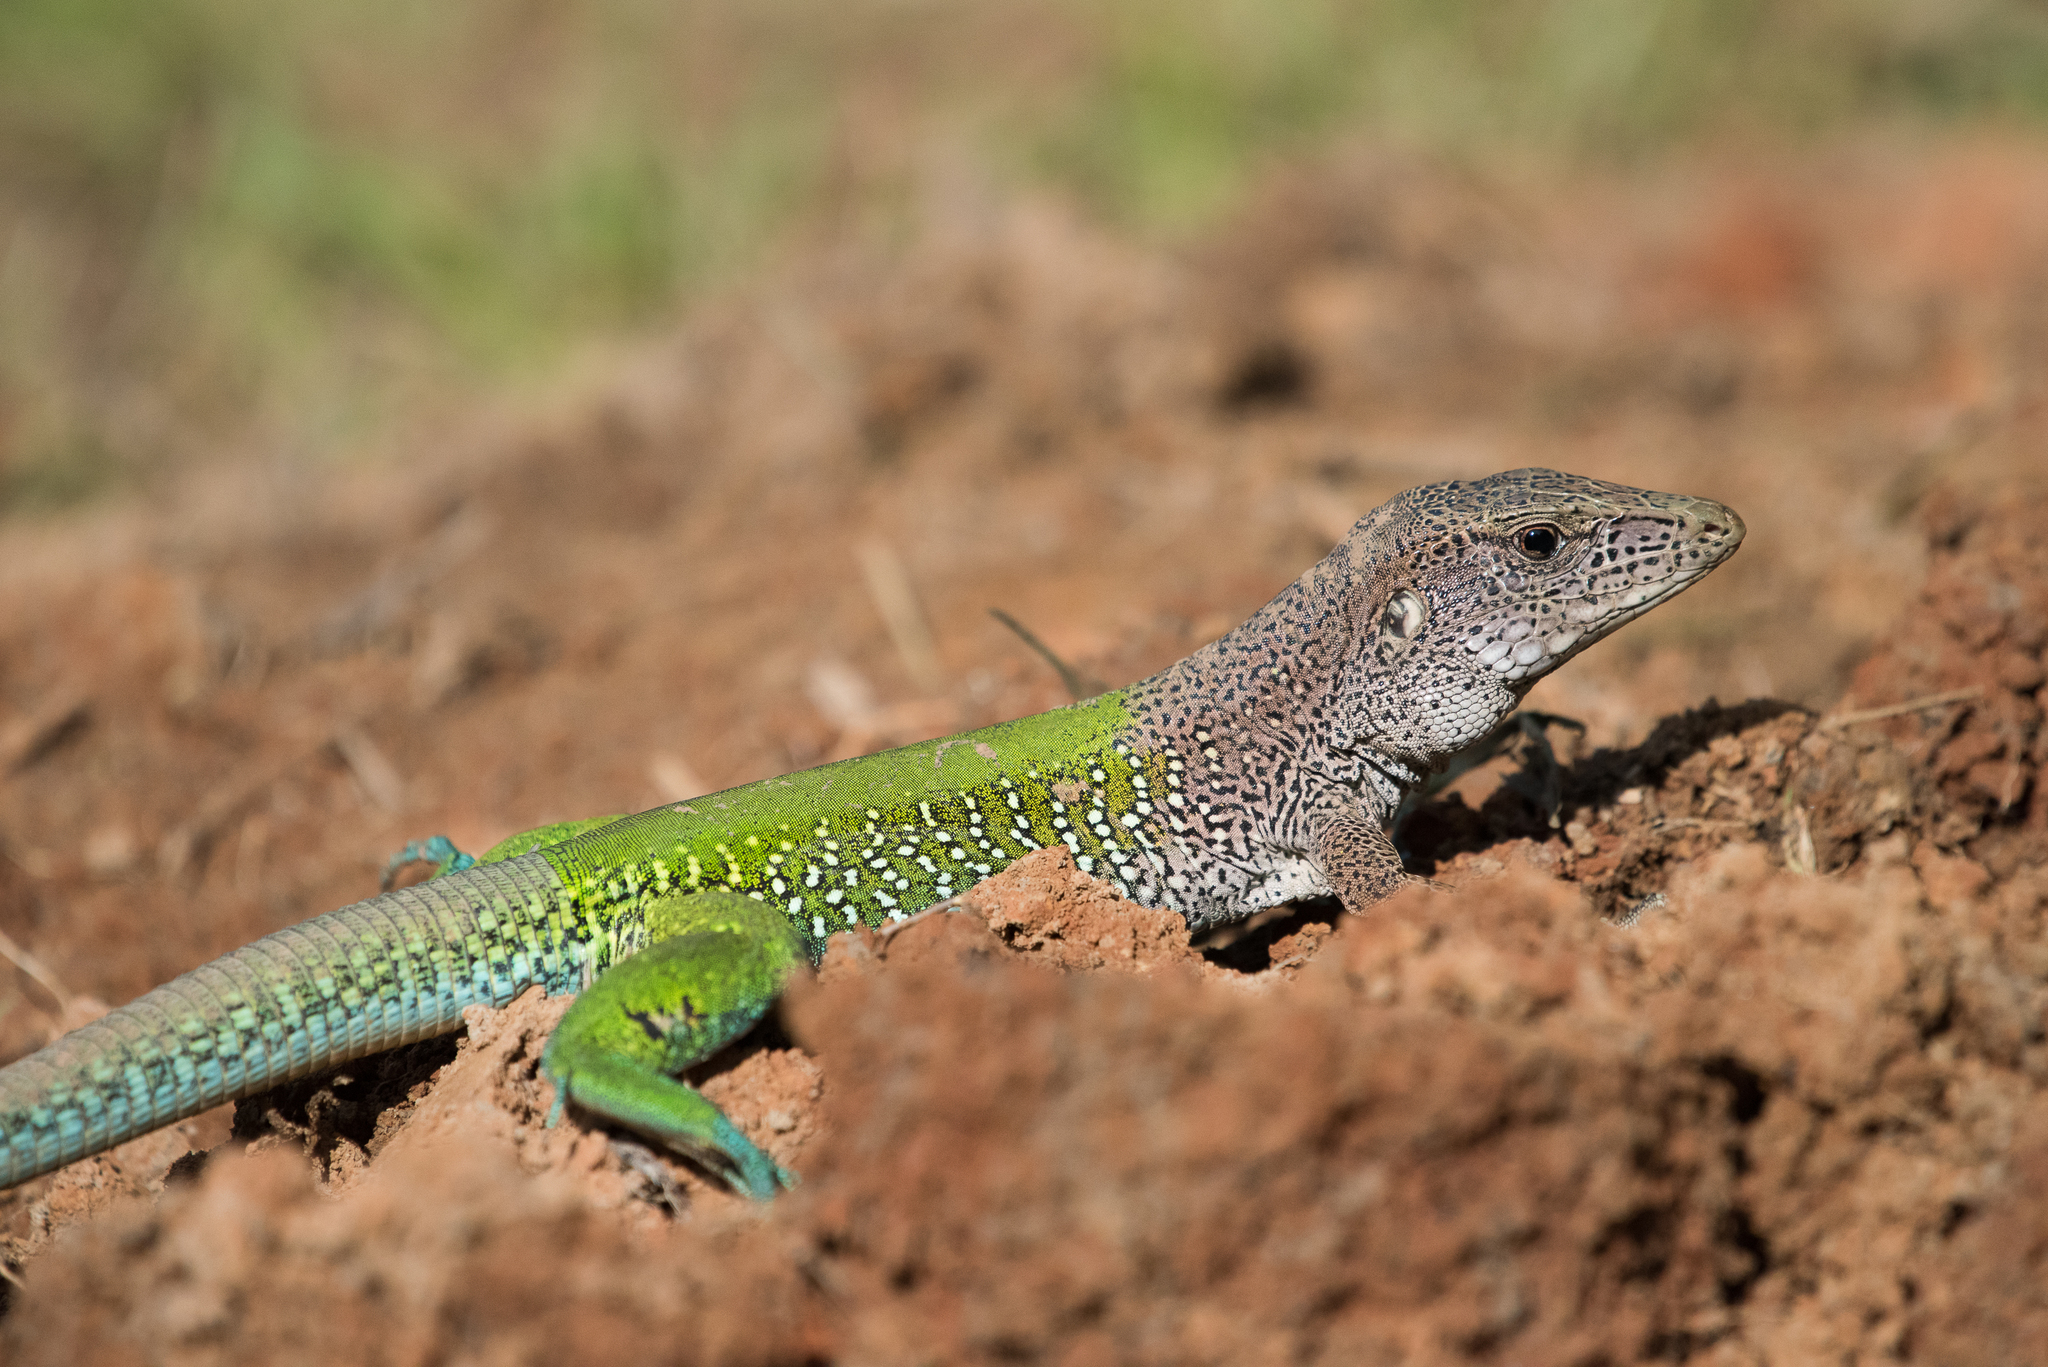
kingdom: Animalia
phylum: Chordata
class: Squamata
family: Teiidae
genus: Ameiva
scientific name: Ameiva ameiva
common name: Giant ameiva
